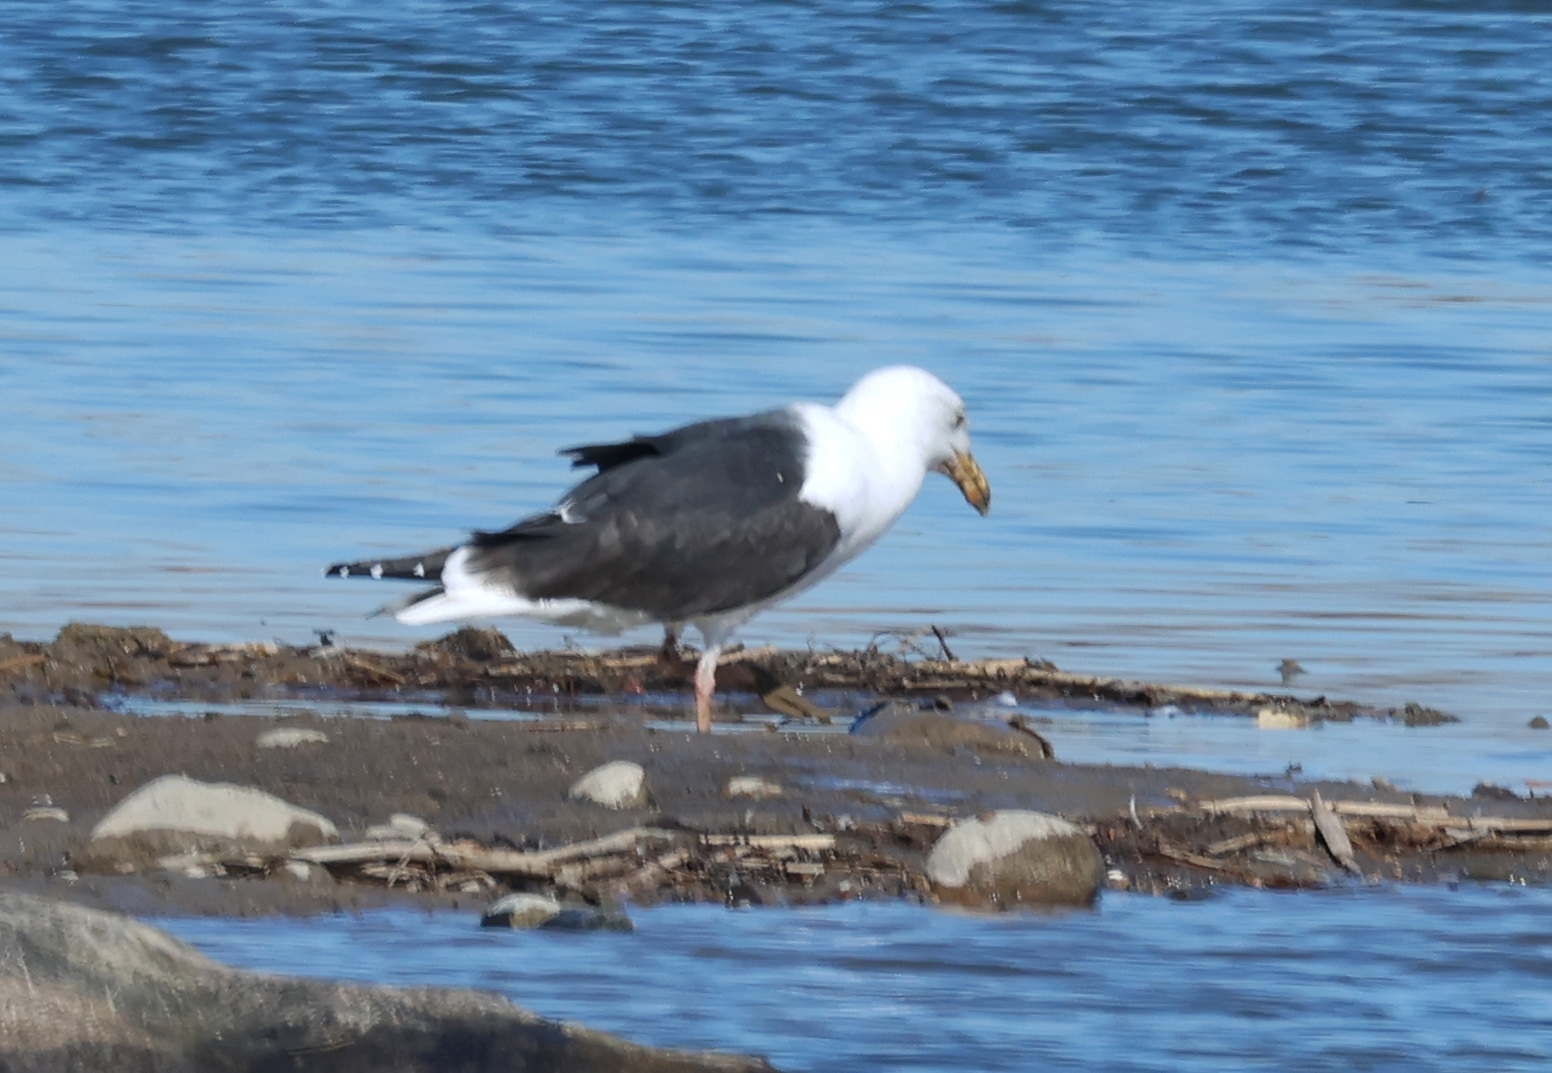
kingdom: Animalia
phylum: Chordata
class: Aves
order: Charadriiformes
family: Laridae
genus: Larus
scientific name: Larus marinus
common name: Great black-backed gull
